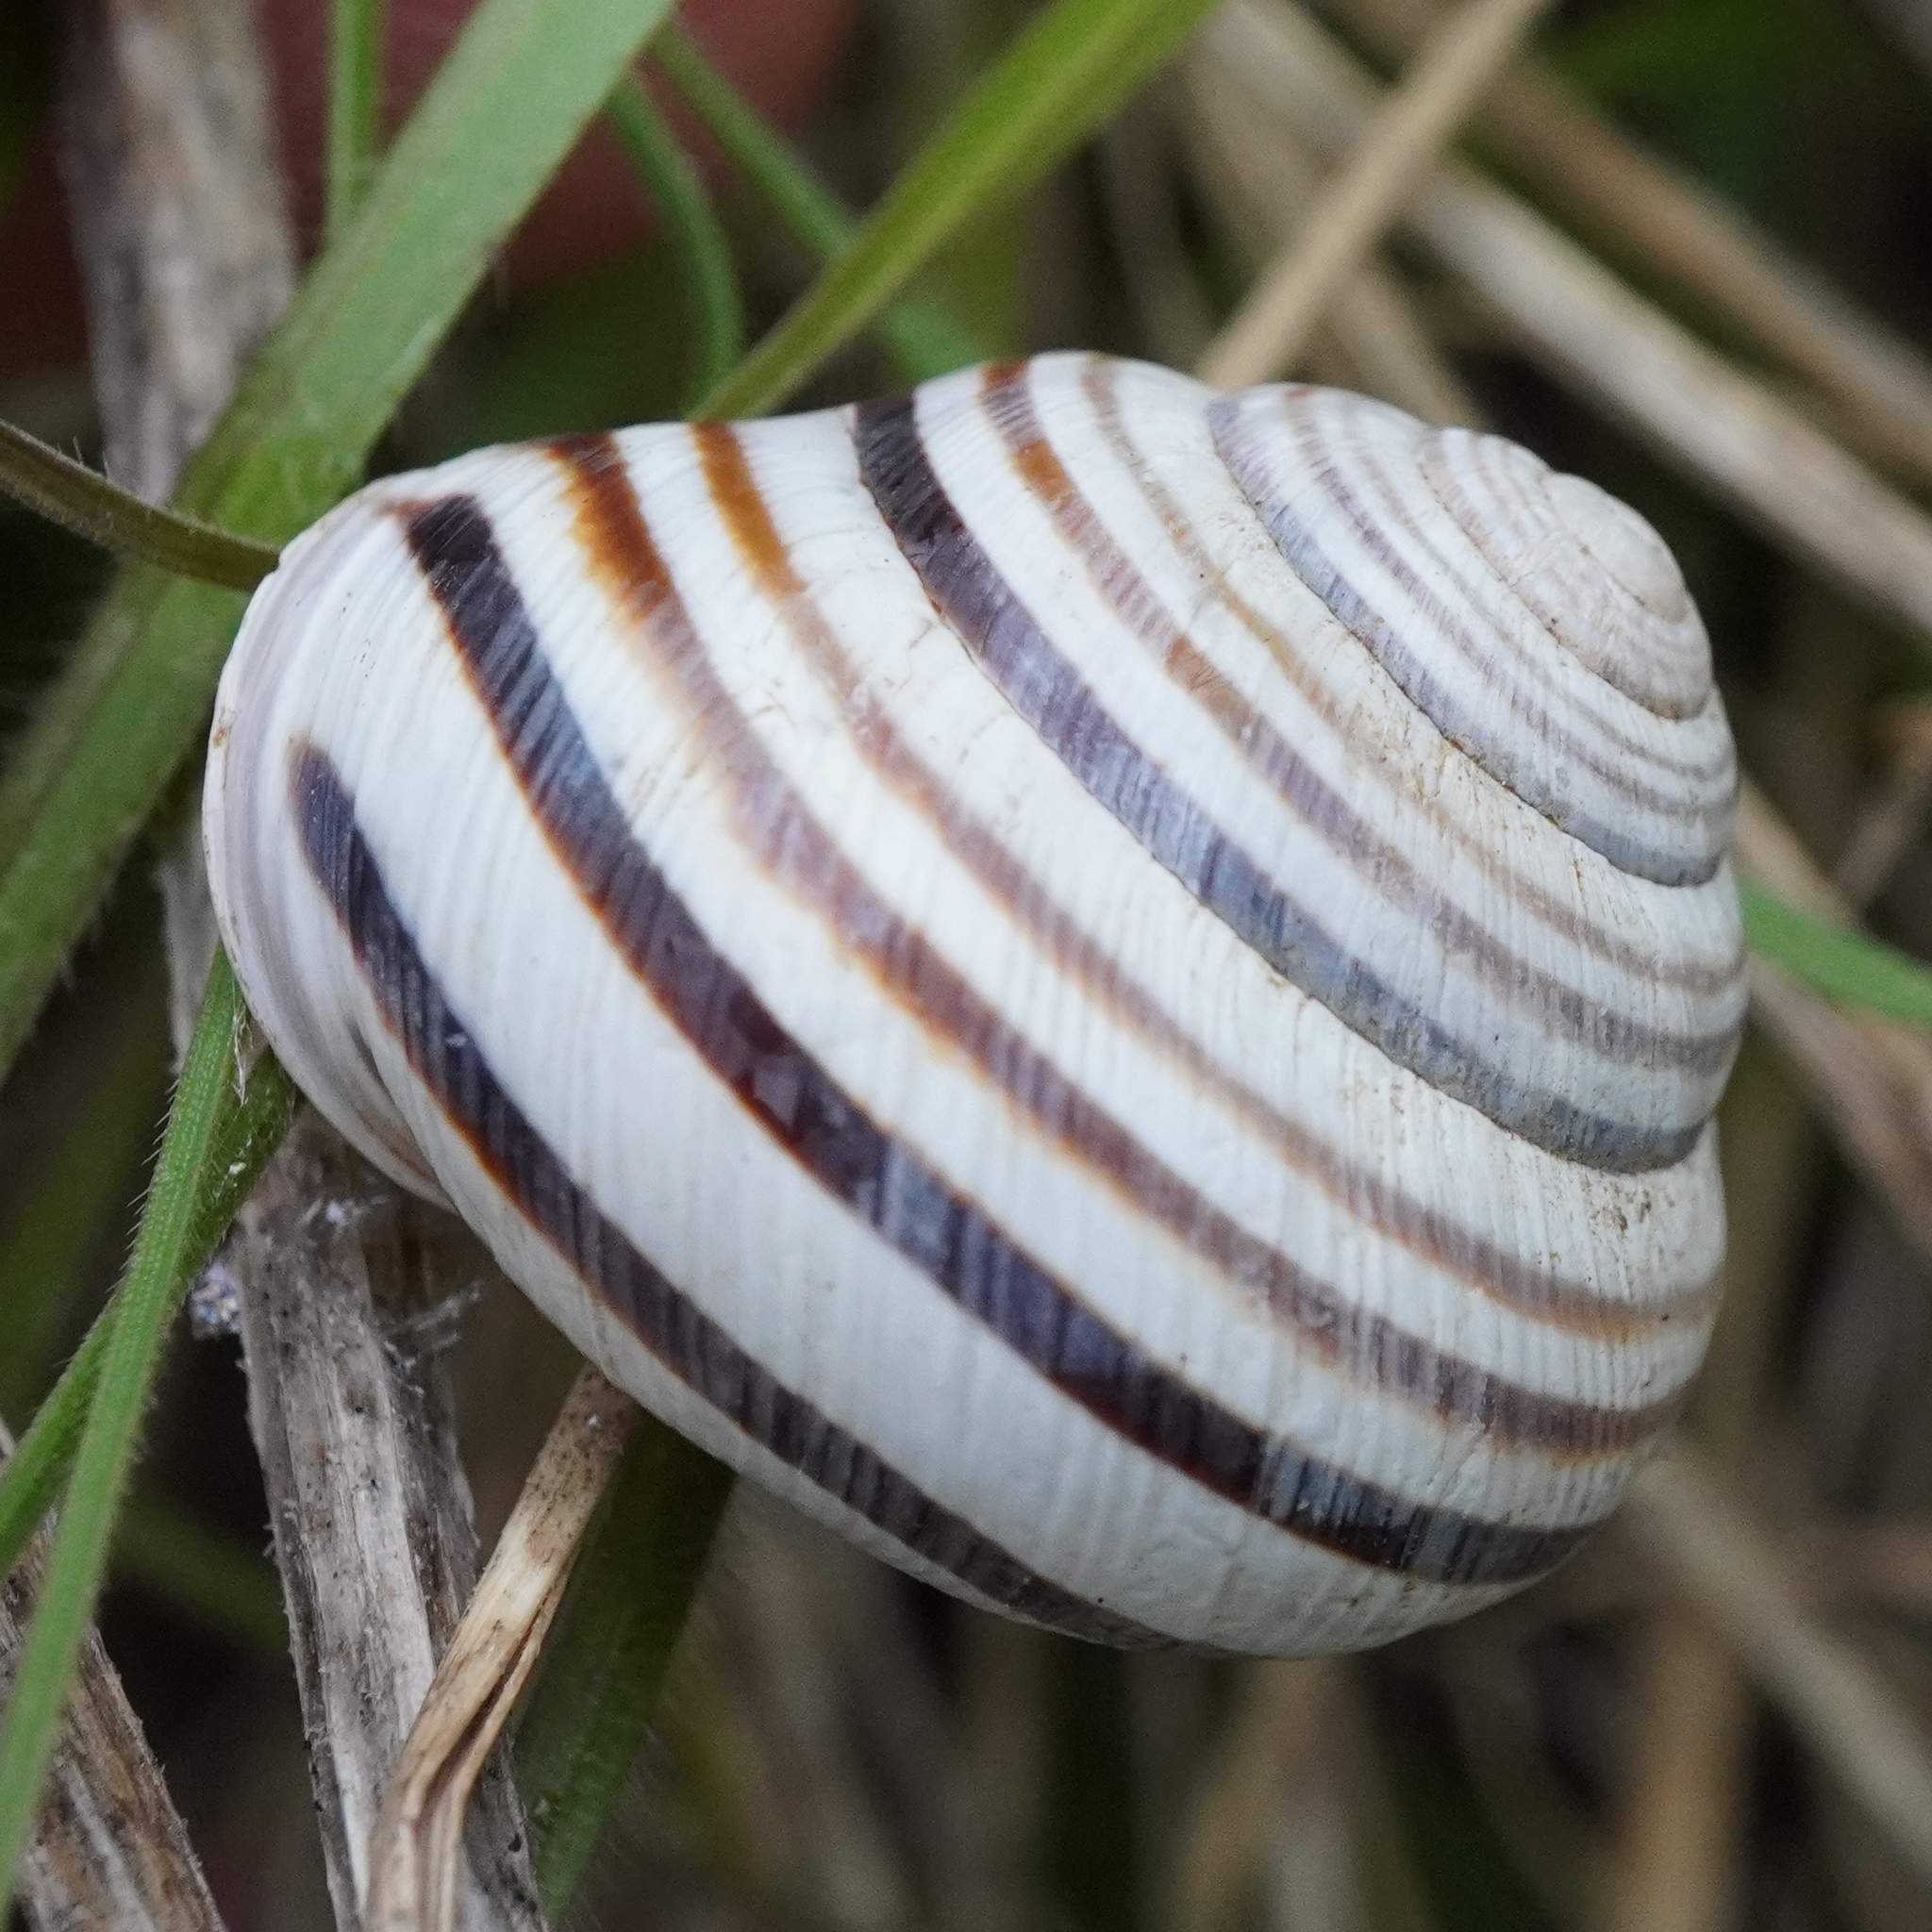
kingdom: Animalia
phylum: Mollusca
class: Gastropoda
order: Stylommatophora
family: Helicidae
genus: Caucasotachea
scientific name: Caucasotachea vindobonensis
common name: European helicid land snail
